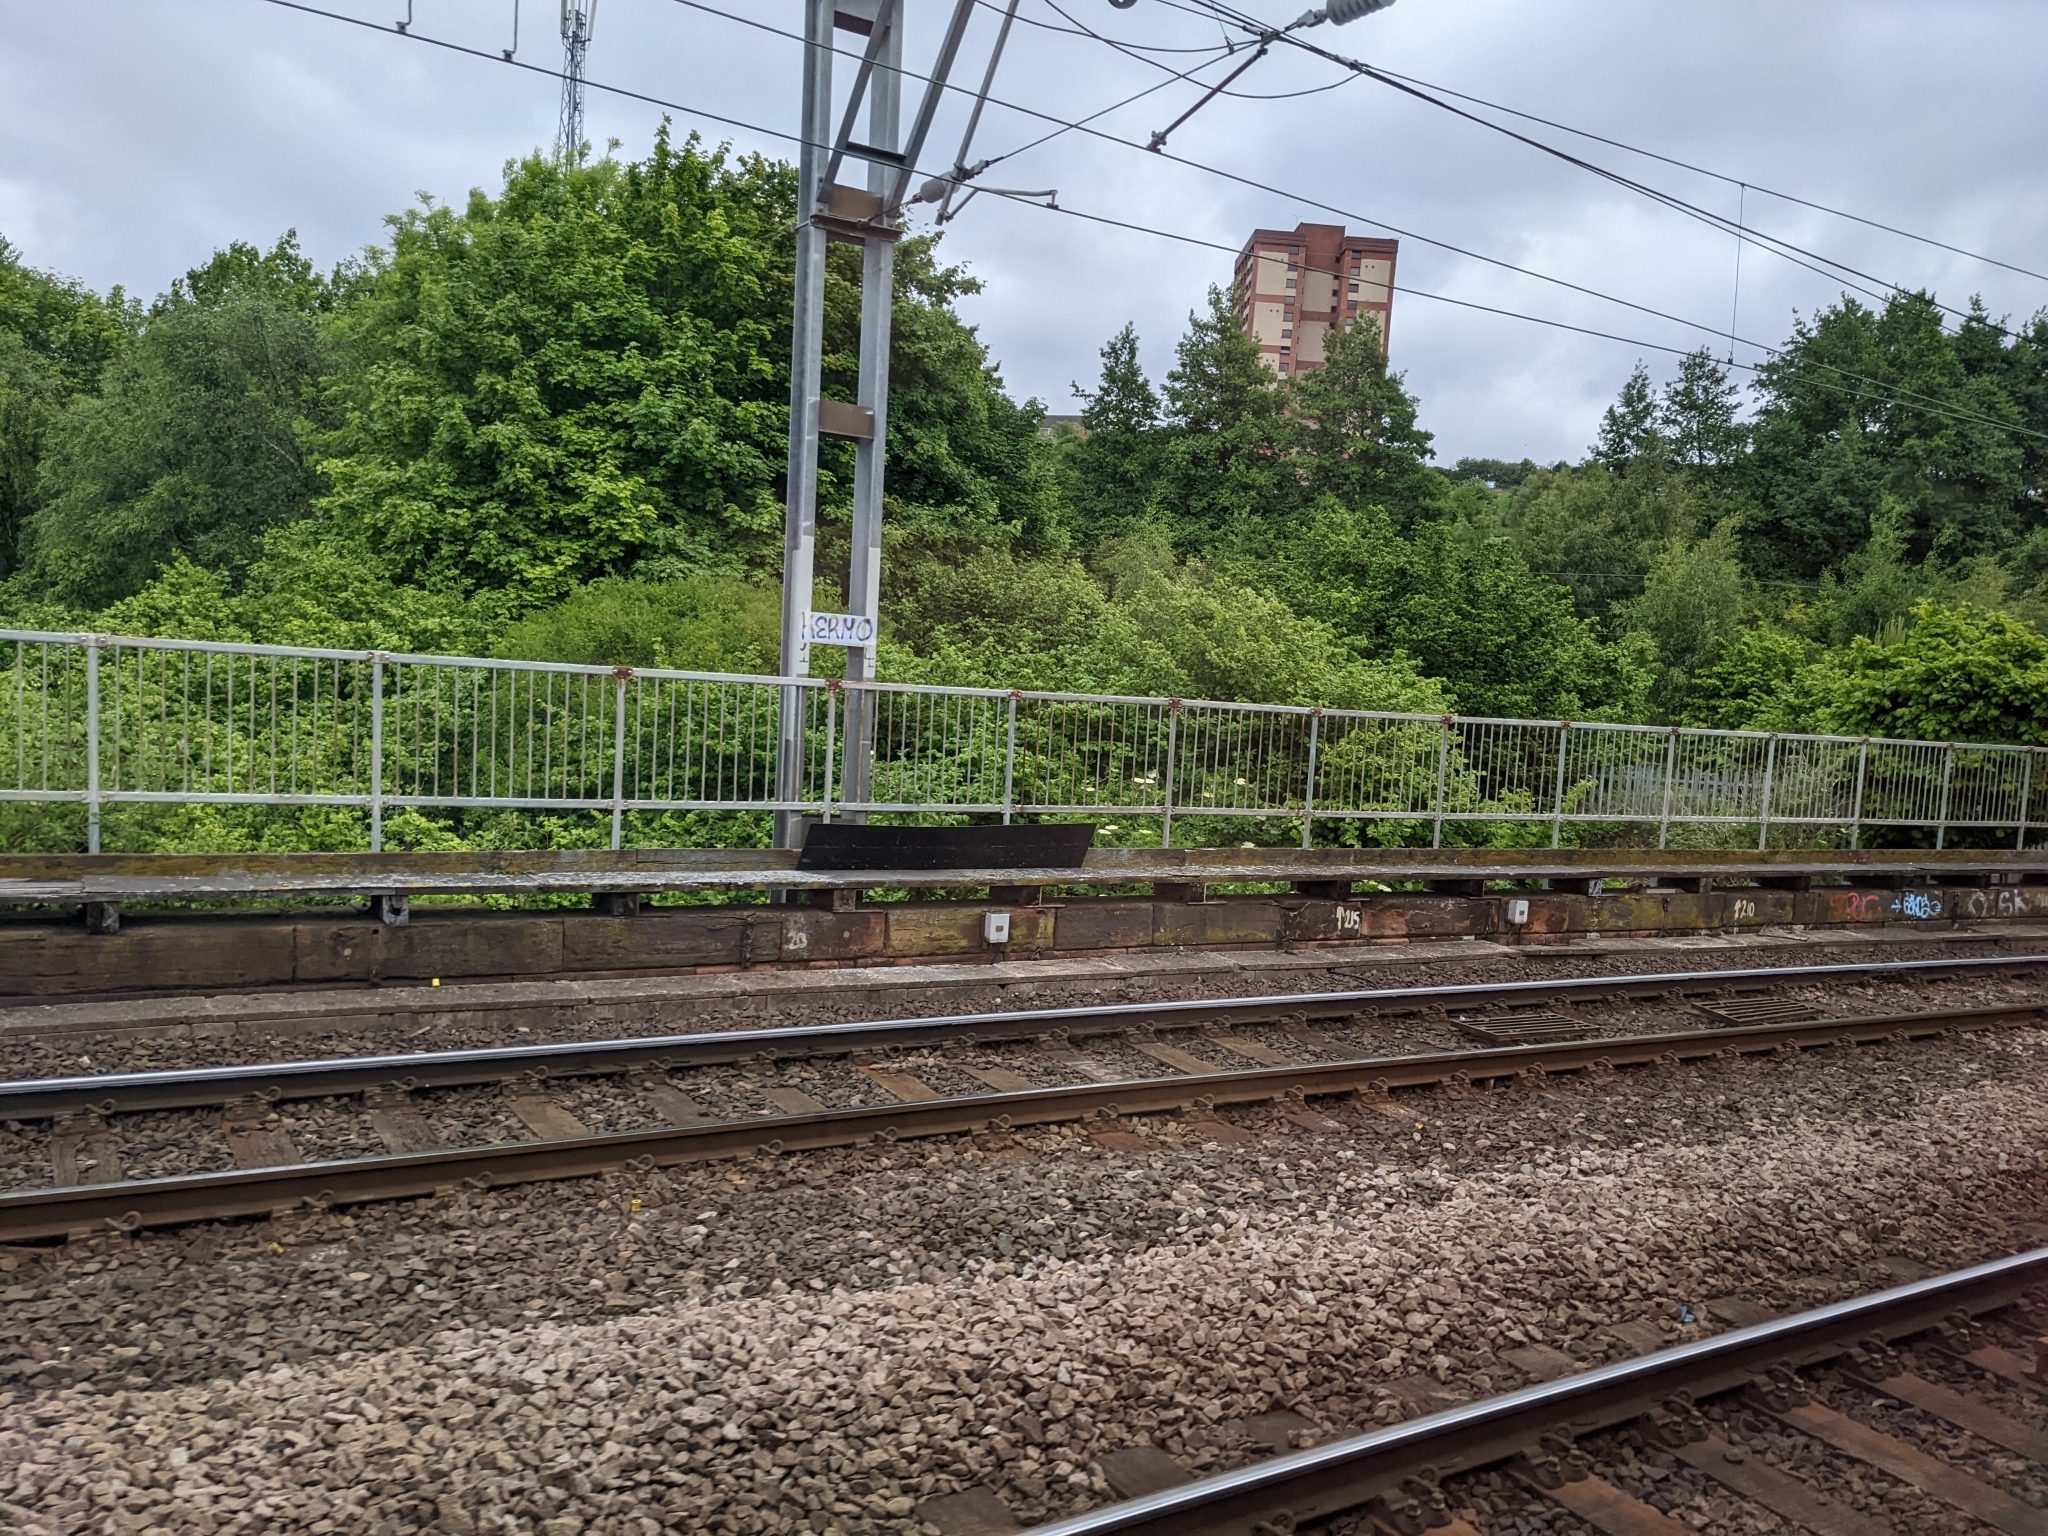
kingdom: Plantae
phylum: Tracheophyta
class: Magnoliopsida
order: Dipsacales
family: Viburnaceae
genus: Sambucus
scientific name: Sambucus nigra
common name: Elder
